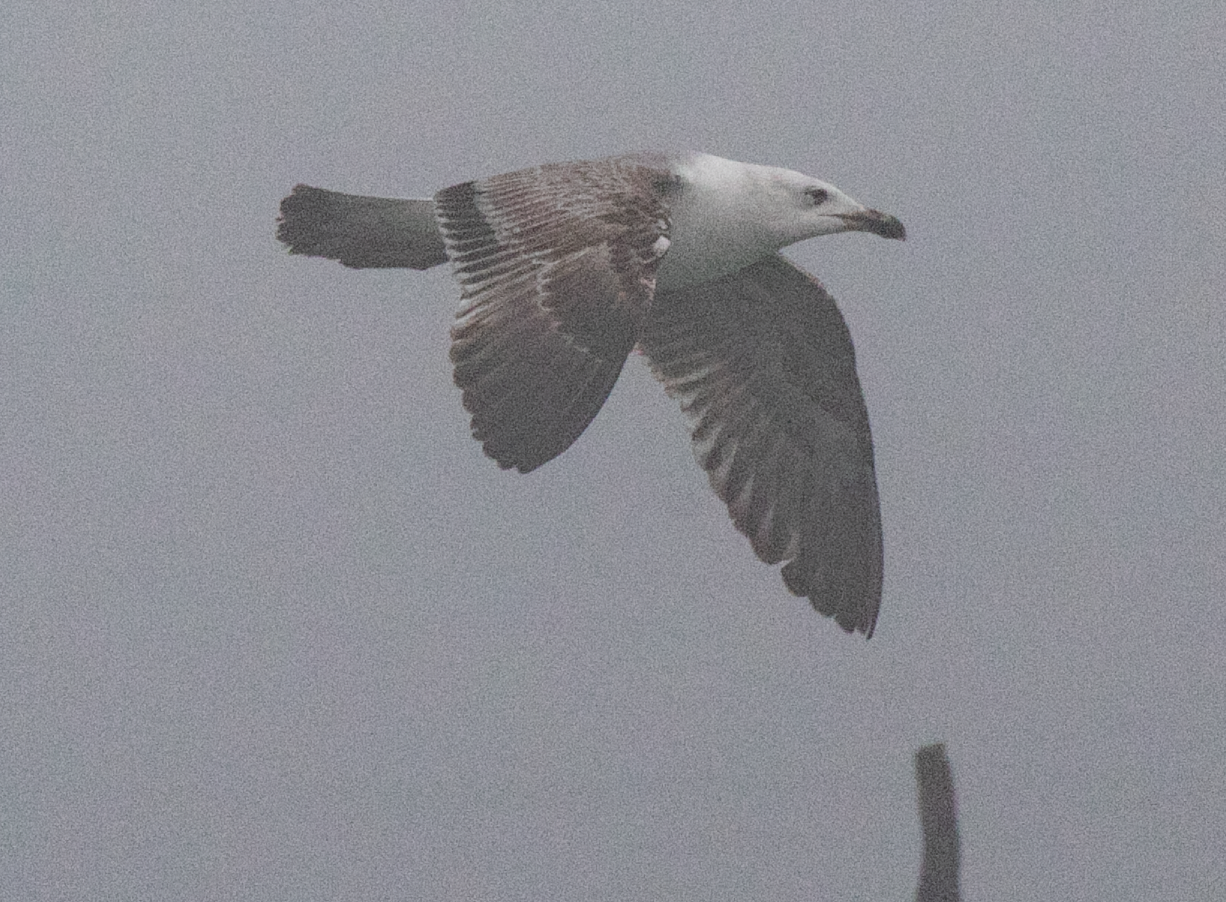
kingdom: Animalia
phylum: Chordata
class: Aves
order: Charadriiformes
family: Laridae
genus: Larus
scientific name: Larus michahellis
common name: Yellow-legged gull
